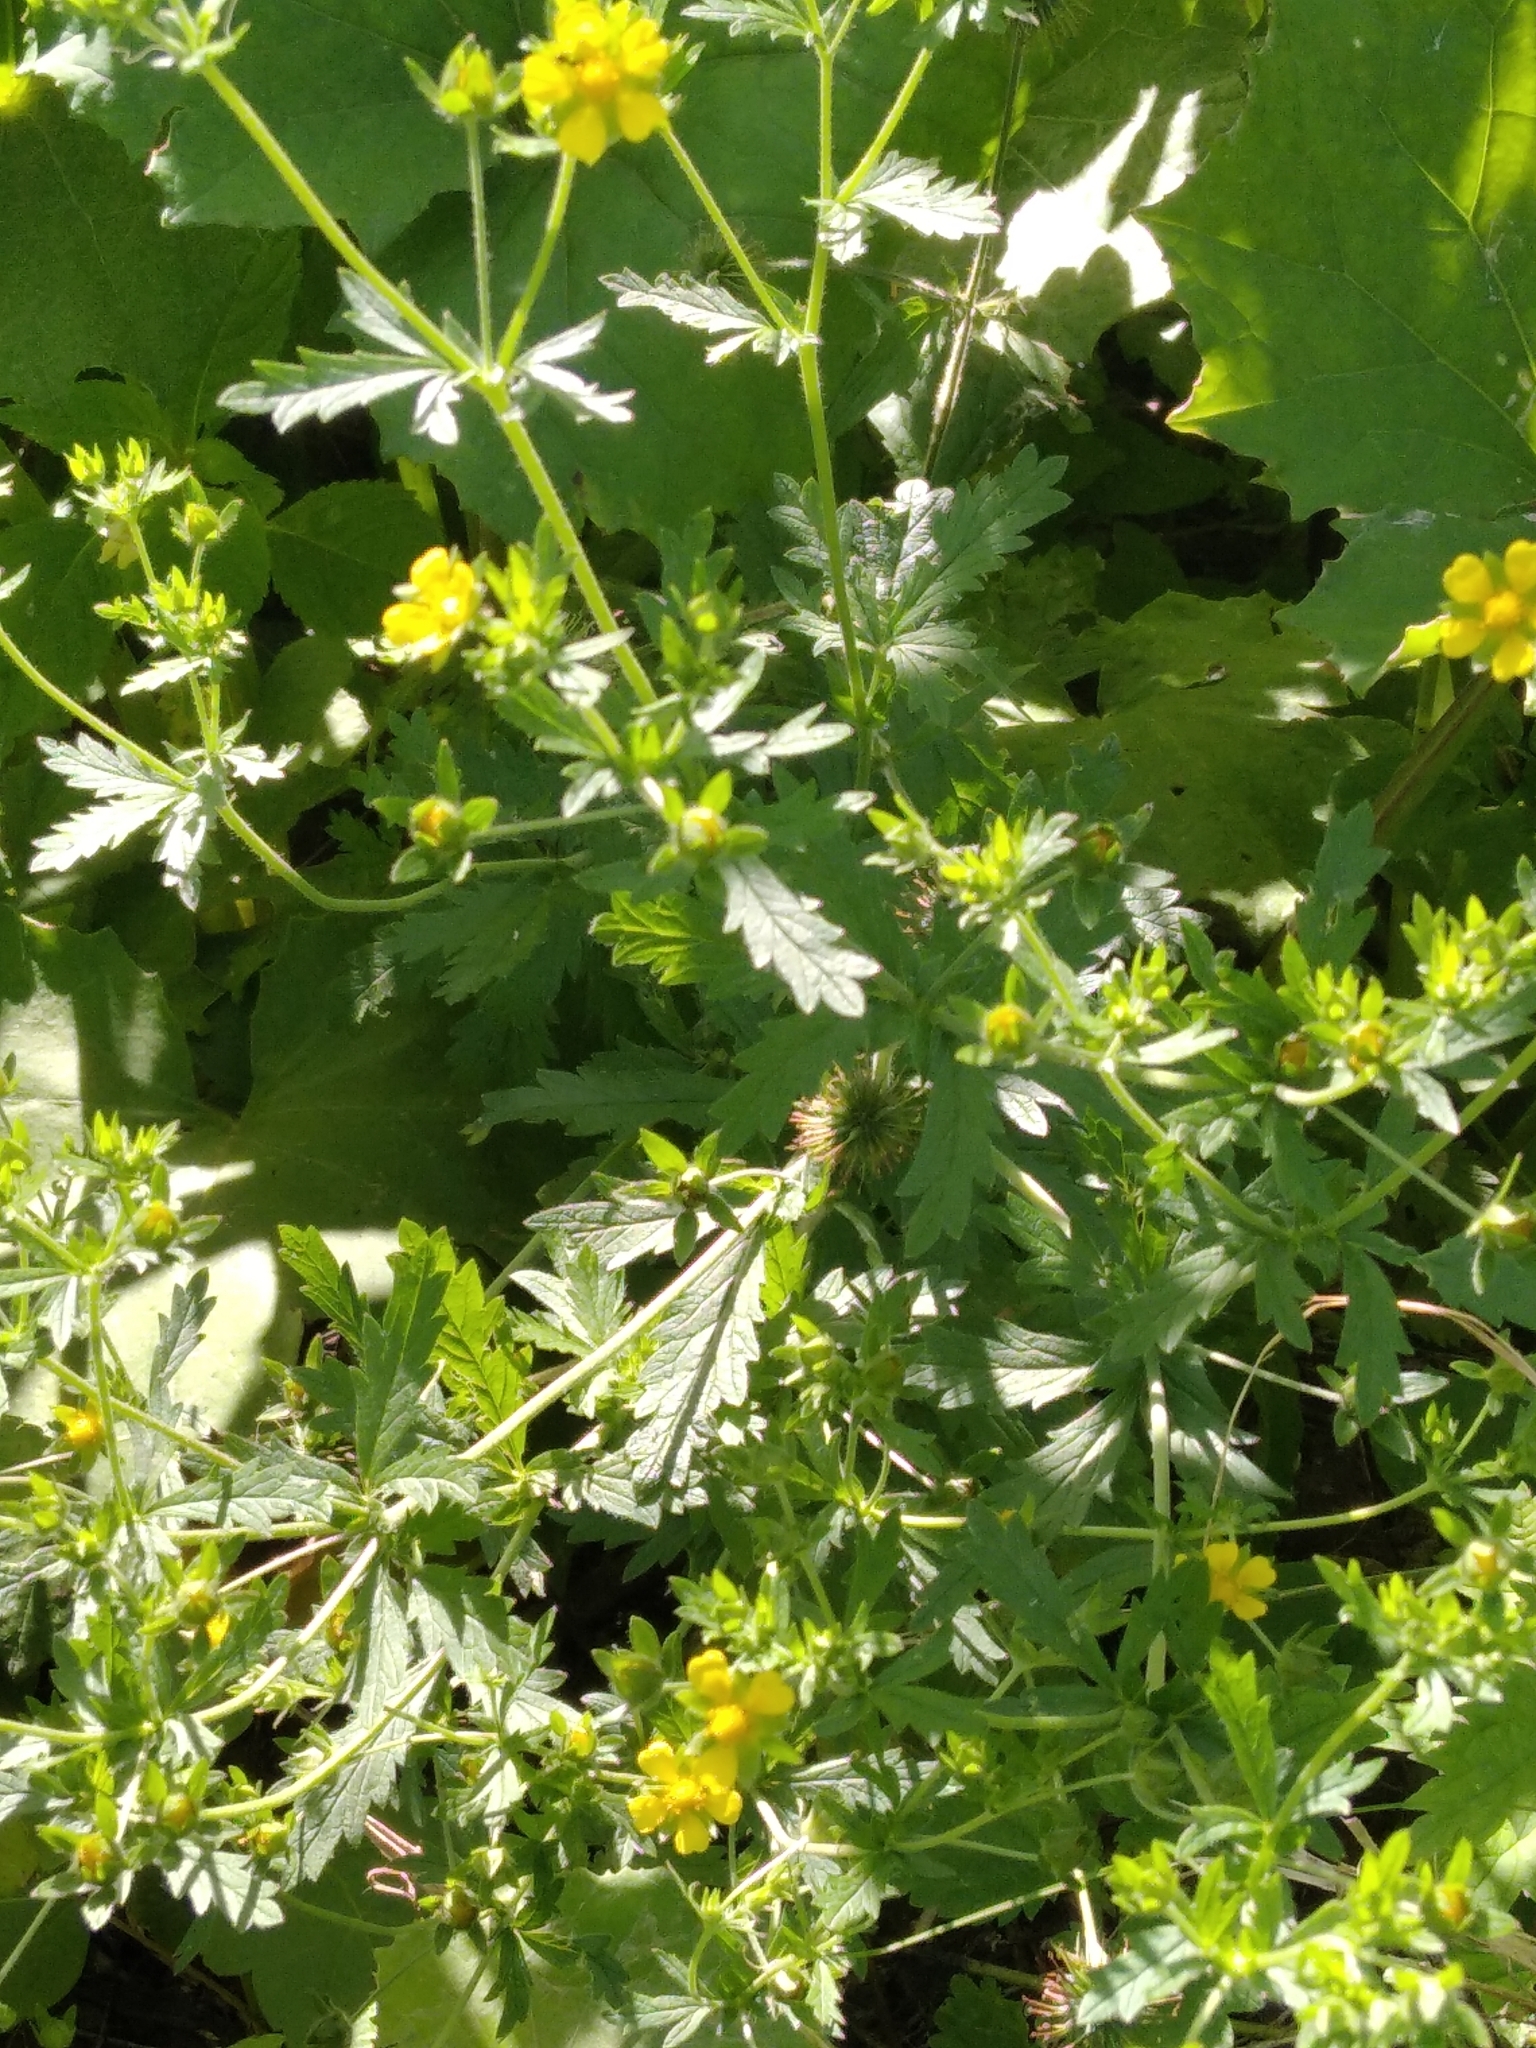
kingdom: Plantae
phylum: Tracheophyta
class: Magnoliopsida
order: Rosales
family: Rosaceae
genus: Potentilla
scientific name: Potentilla intermedia
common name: Downy cinquefoil
